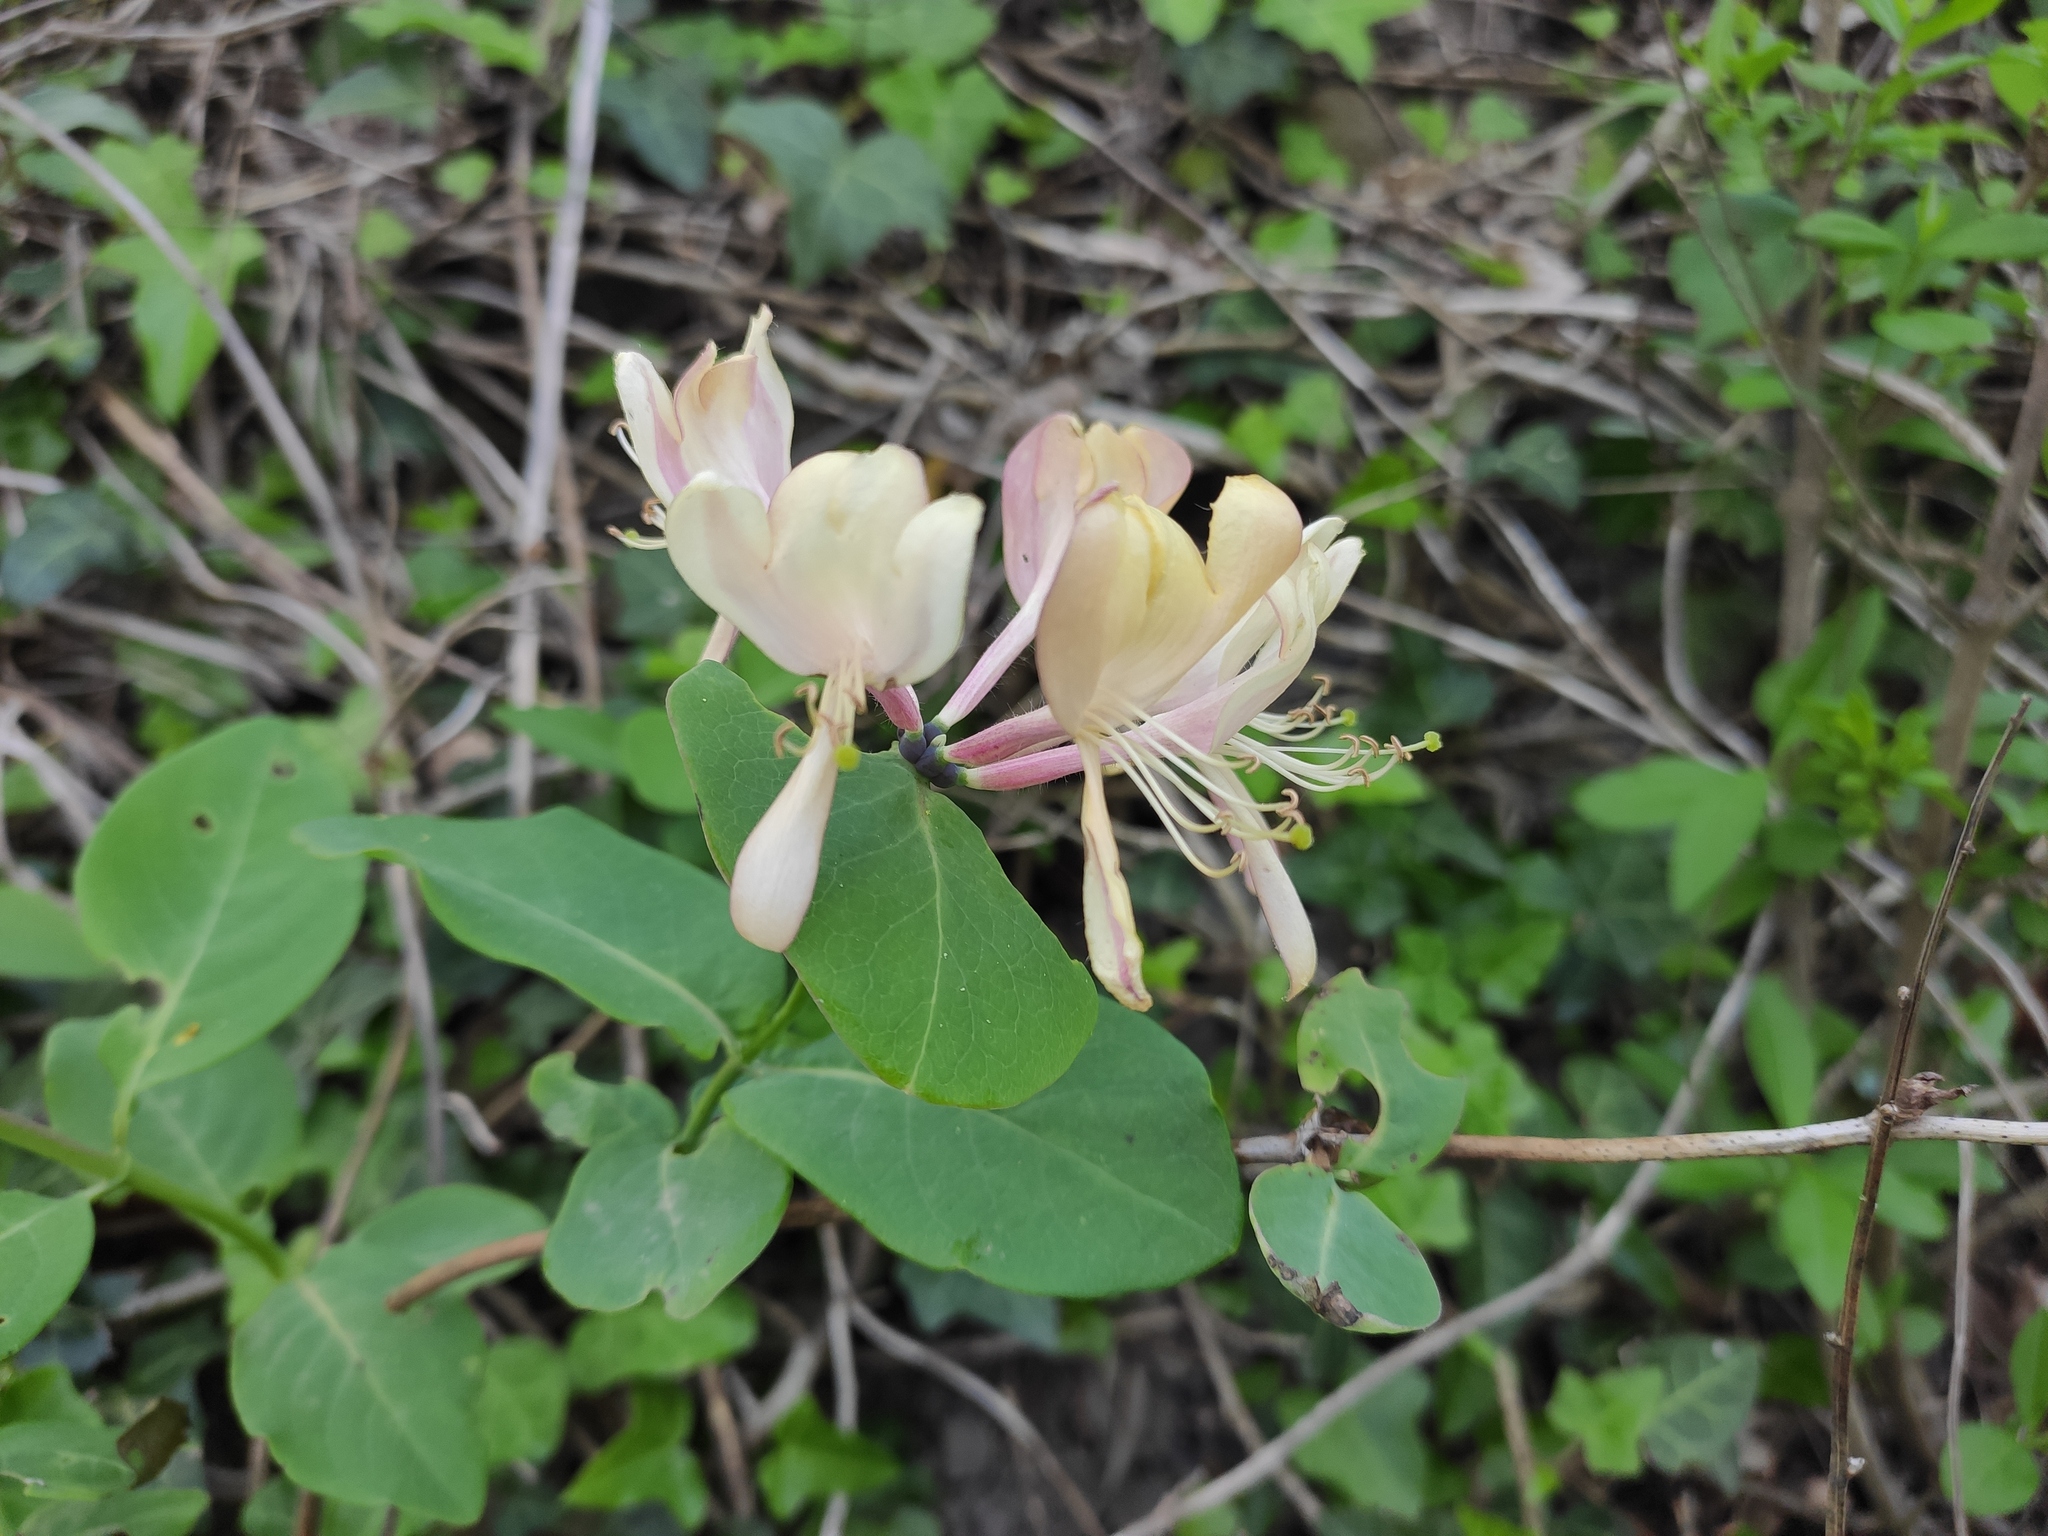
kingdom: Plantae
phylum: Tracheophyta
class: Magnoliopsida
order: Dipsacales
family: Caprifoliaceae
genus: Lonicera
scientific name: Lonicera caprifolium
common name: Perfoliate honeysuckle
